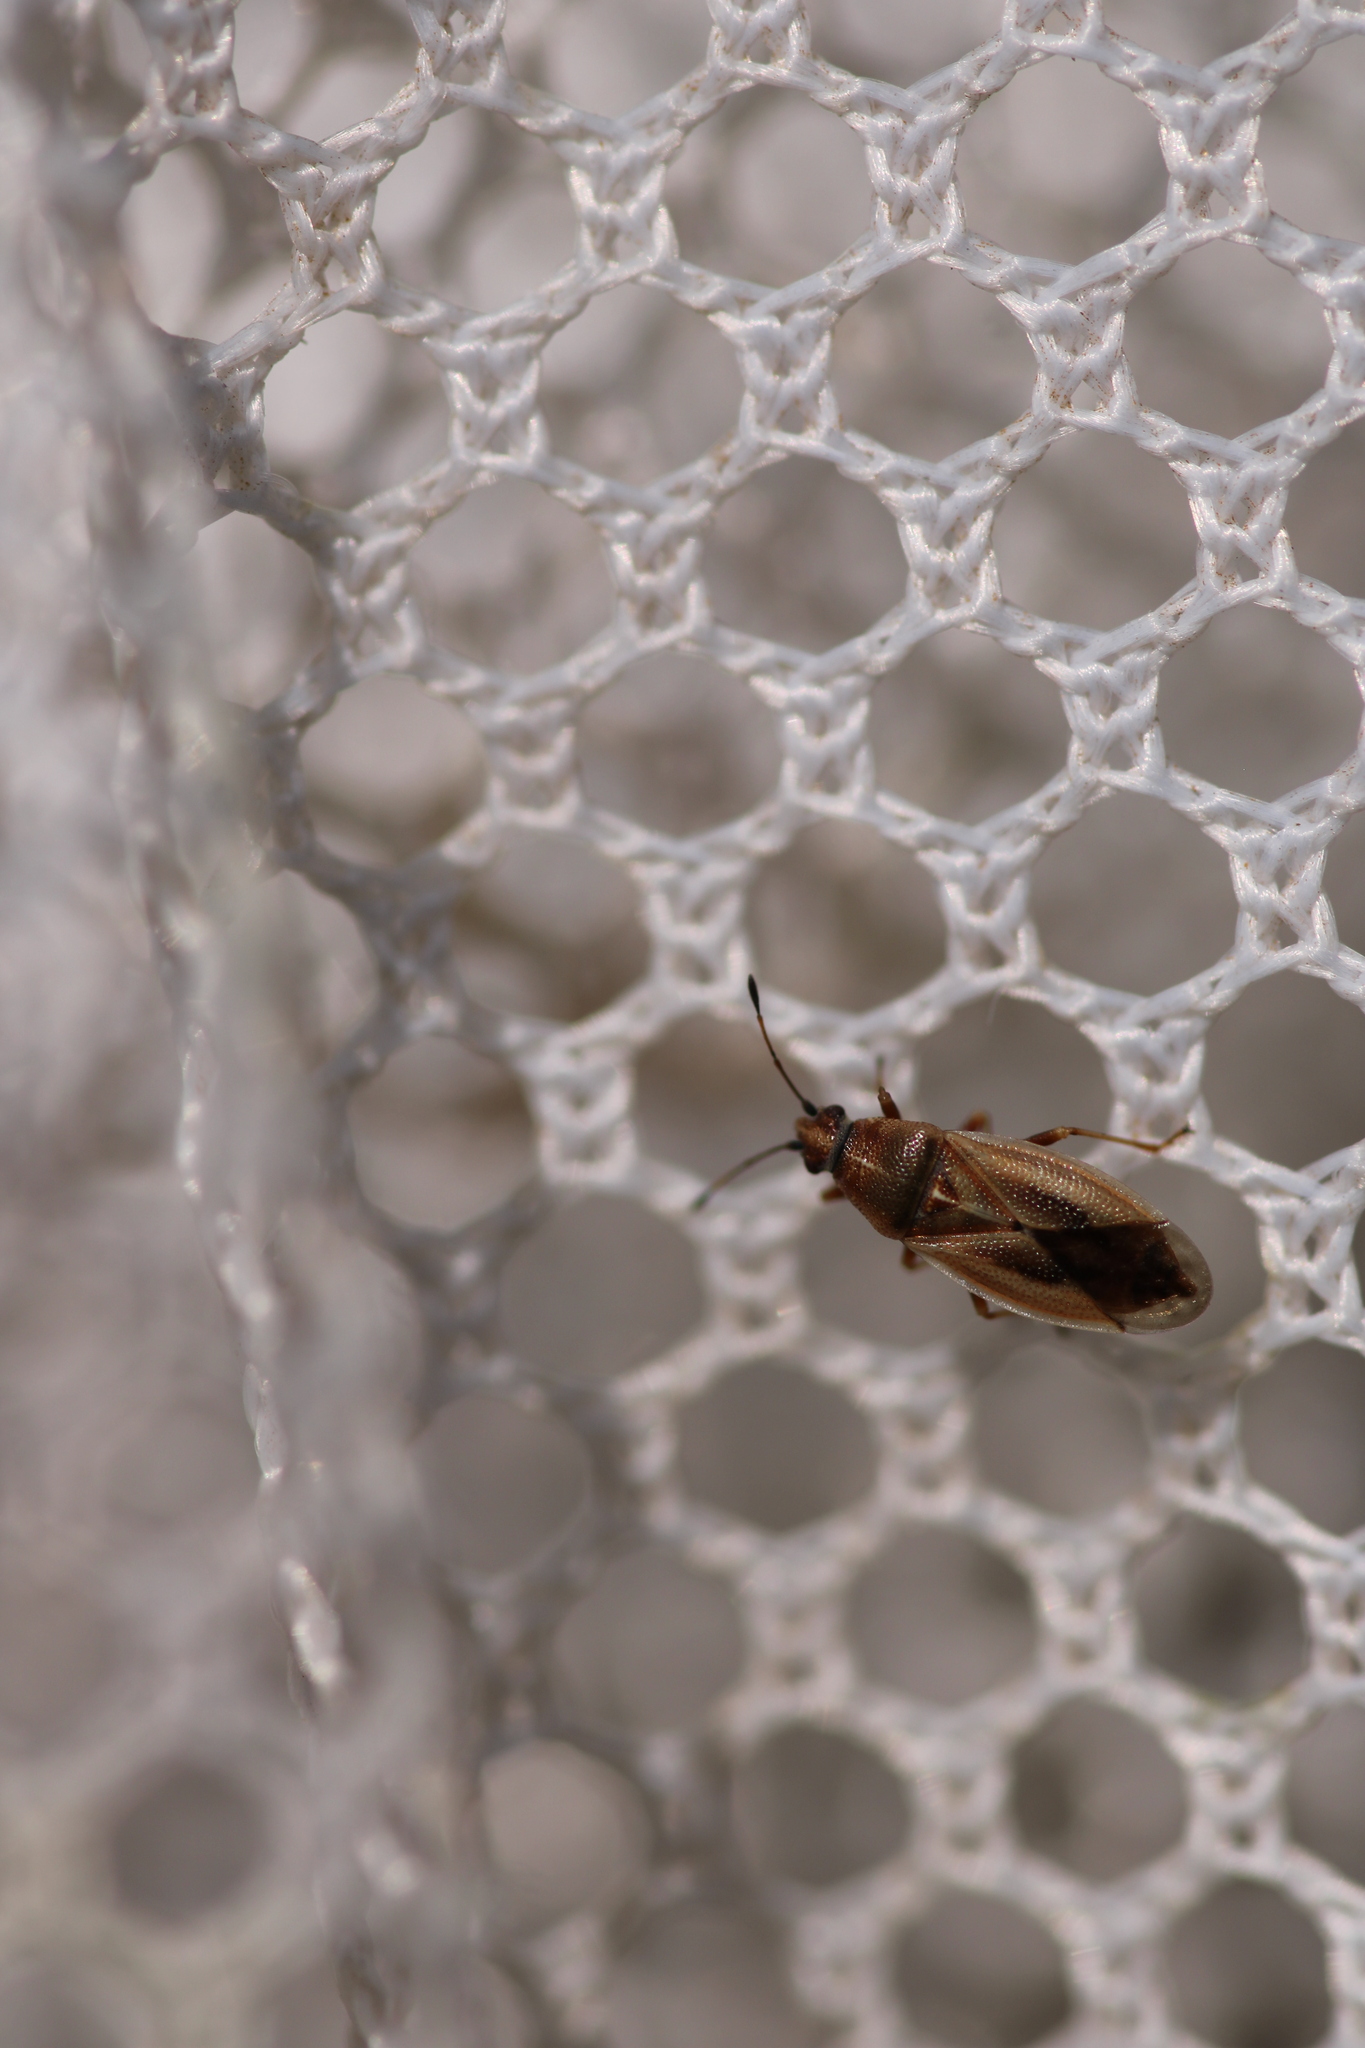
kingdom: Animalia
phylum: Arthropoda
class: Insecta
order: Hemiptera
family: Cymidae
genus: Cymus
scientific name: Cymus glandicolor
